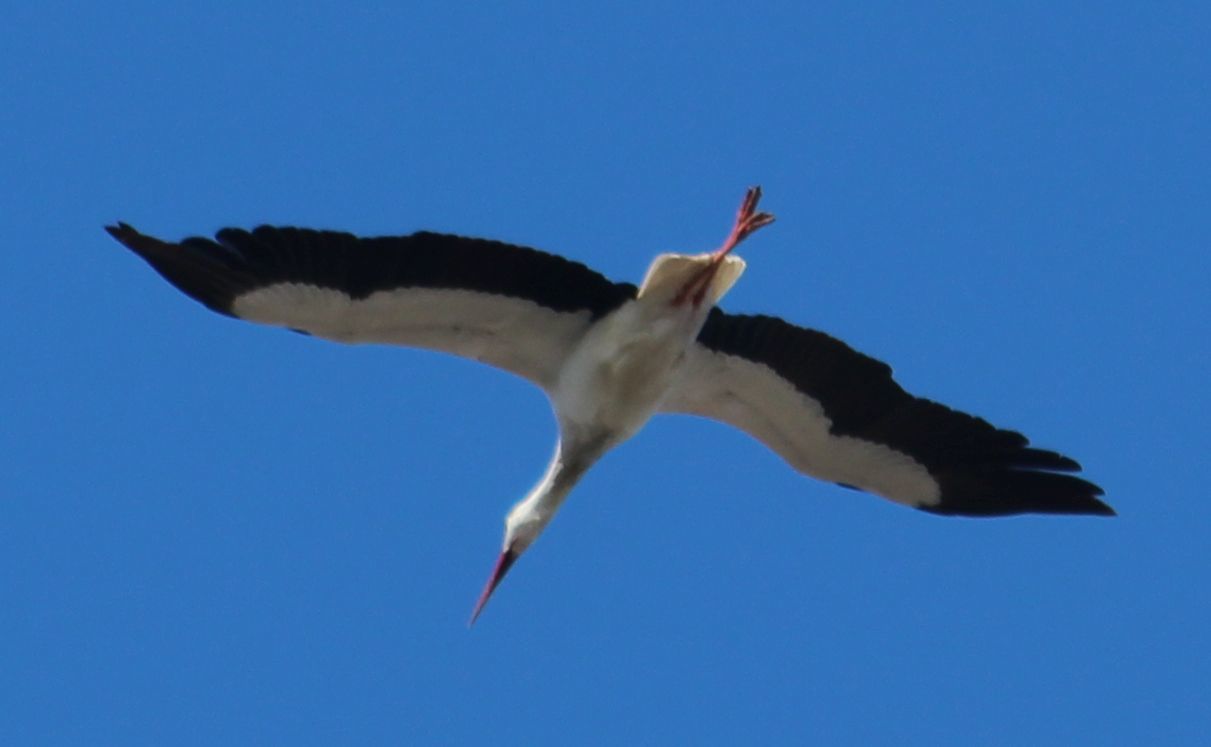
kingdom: Animalia
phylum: Chordata
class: Aves
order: Ciconiiformes
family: Ciconiidae
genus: Ciconia
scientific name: Ciconia ciconia
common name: White stork
